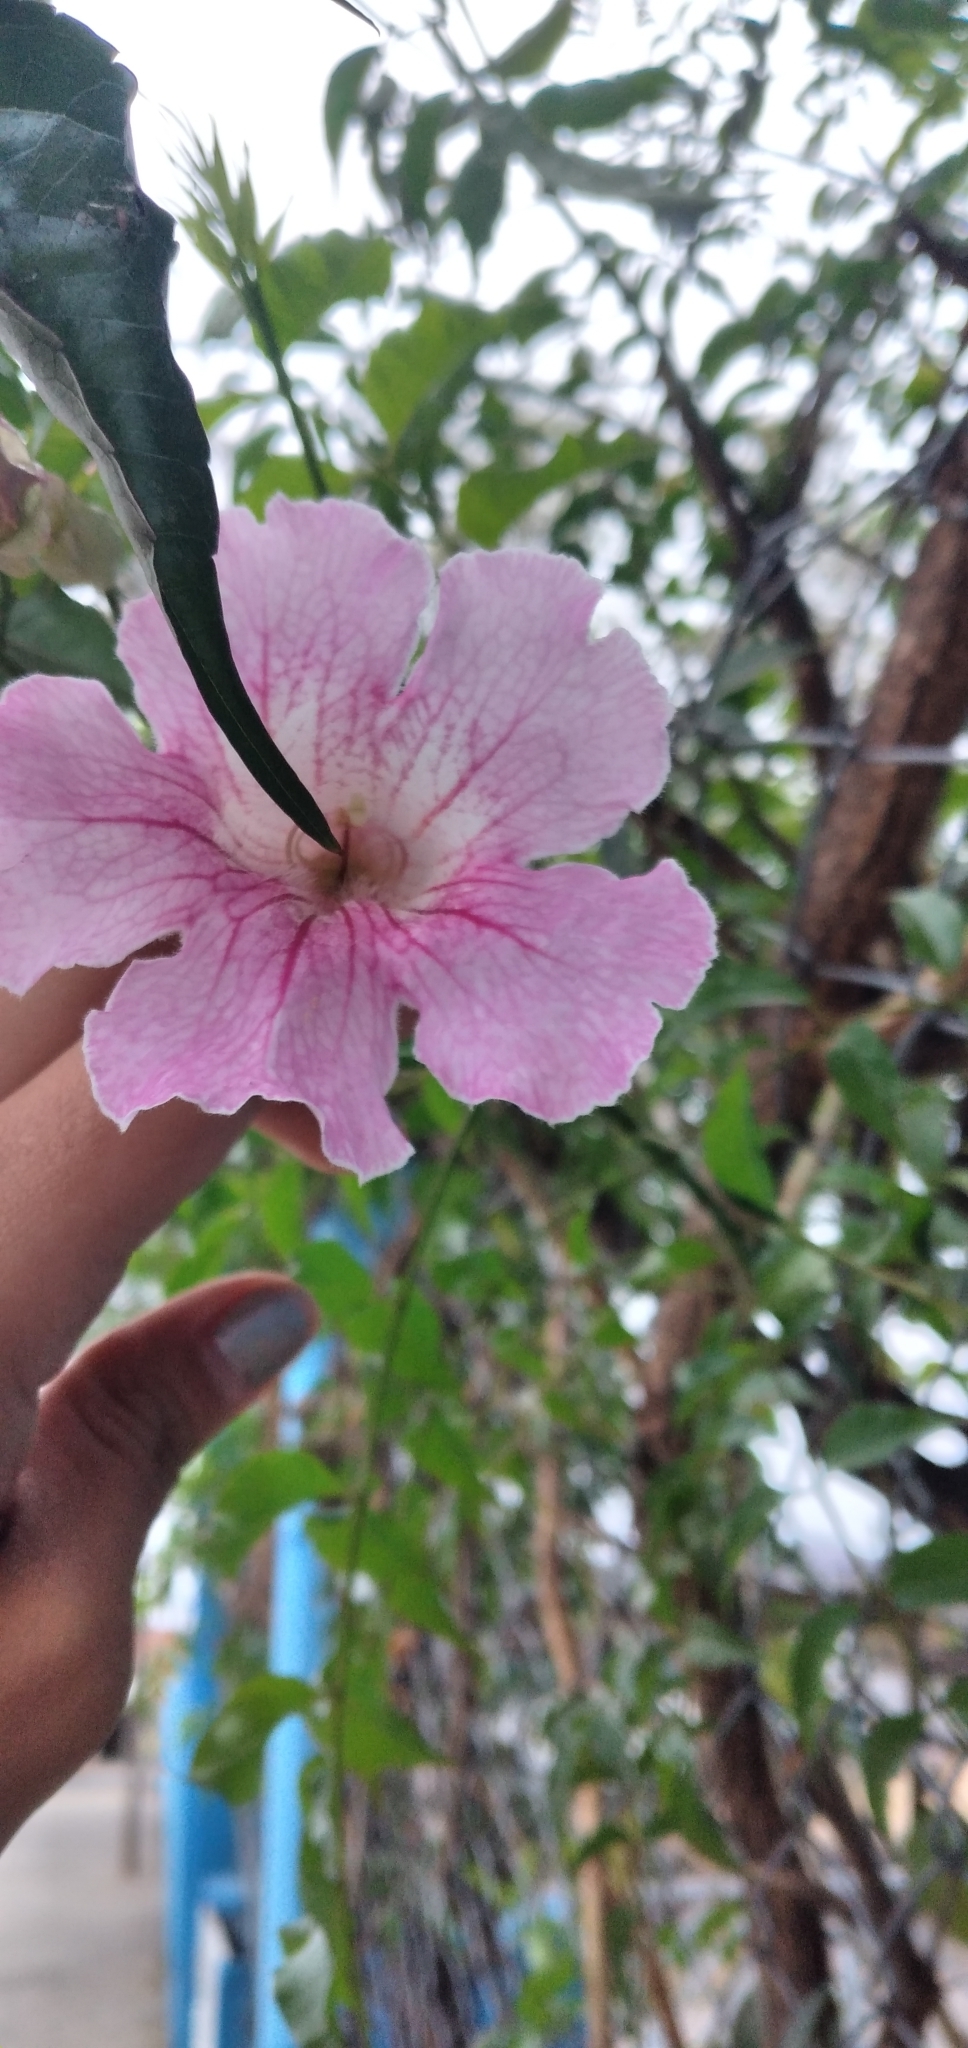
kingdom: Plantae
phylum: Tracheophyta
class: Magnoliopsida
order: Lamiales
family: Bignoniaceae
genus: Podranea
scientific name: Podranea ricasoliana
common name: Zimbabwe creeper
